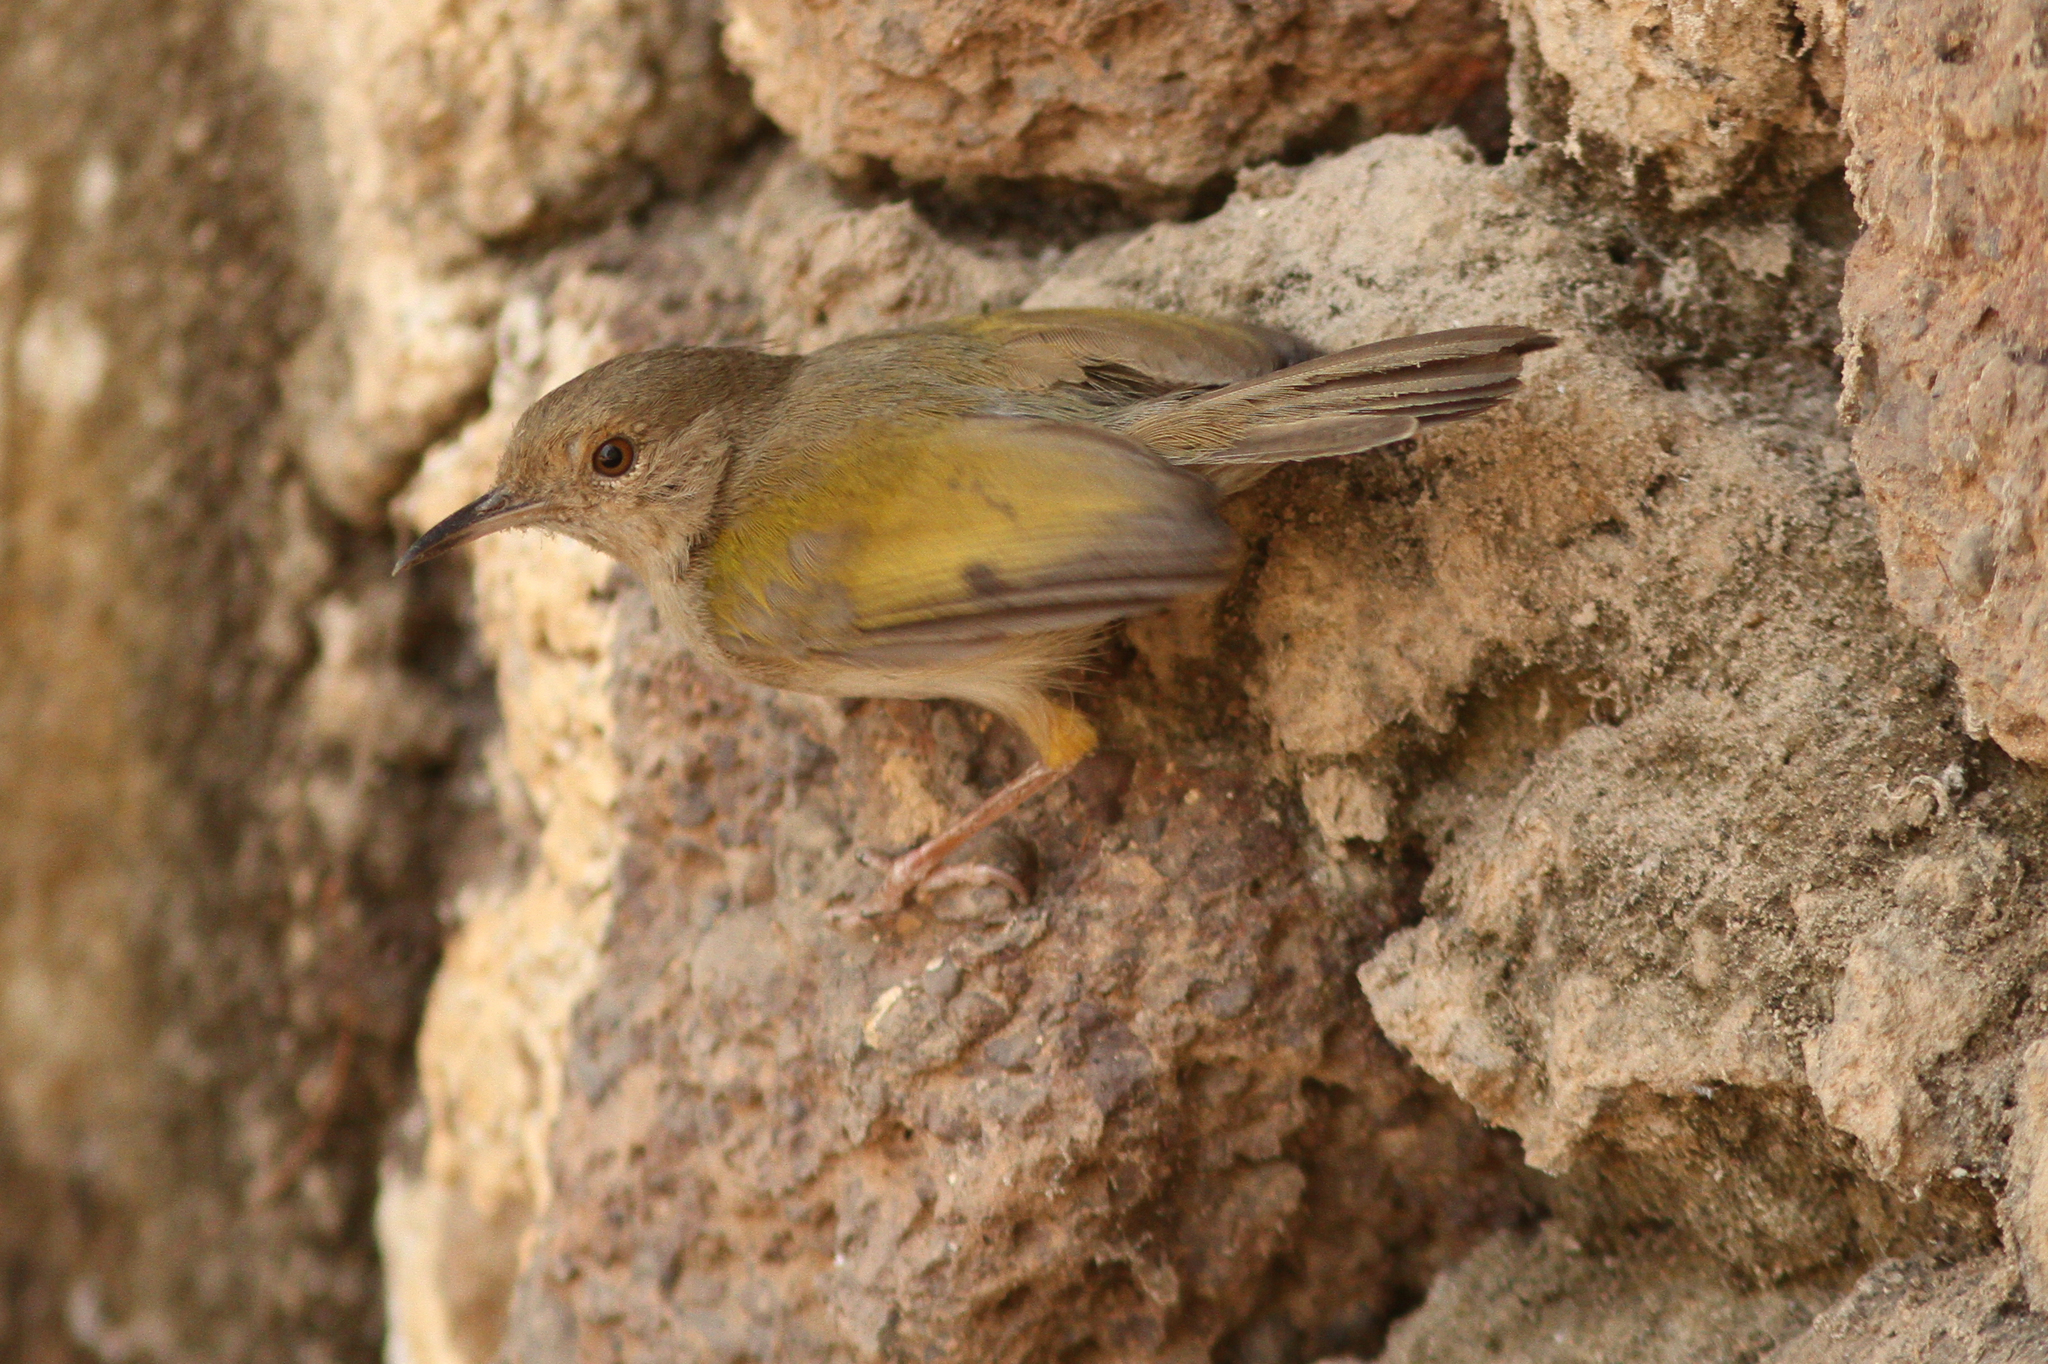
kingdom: Animalia
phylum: Chordata
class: Aves
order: Passeriformes
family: Cisticolidae
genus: Camaroptera
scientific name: Camaroptera brachyura
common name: Green-backed camaroptera
